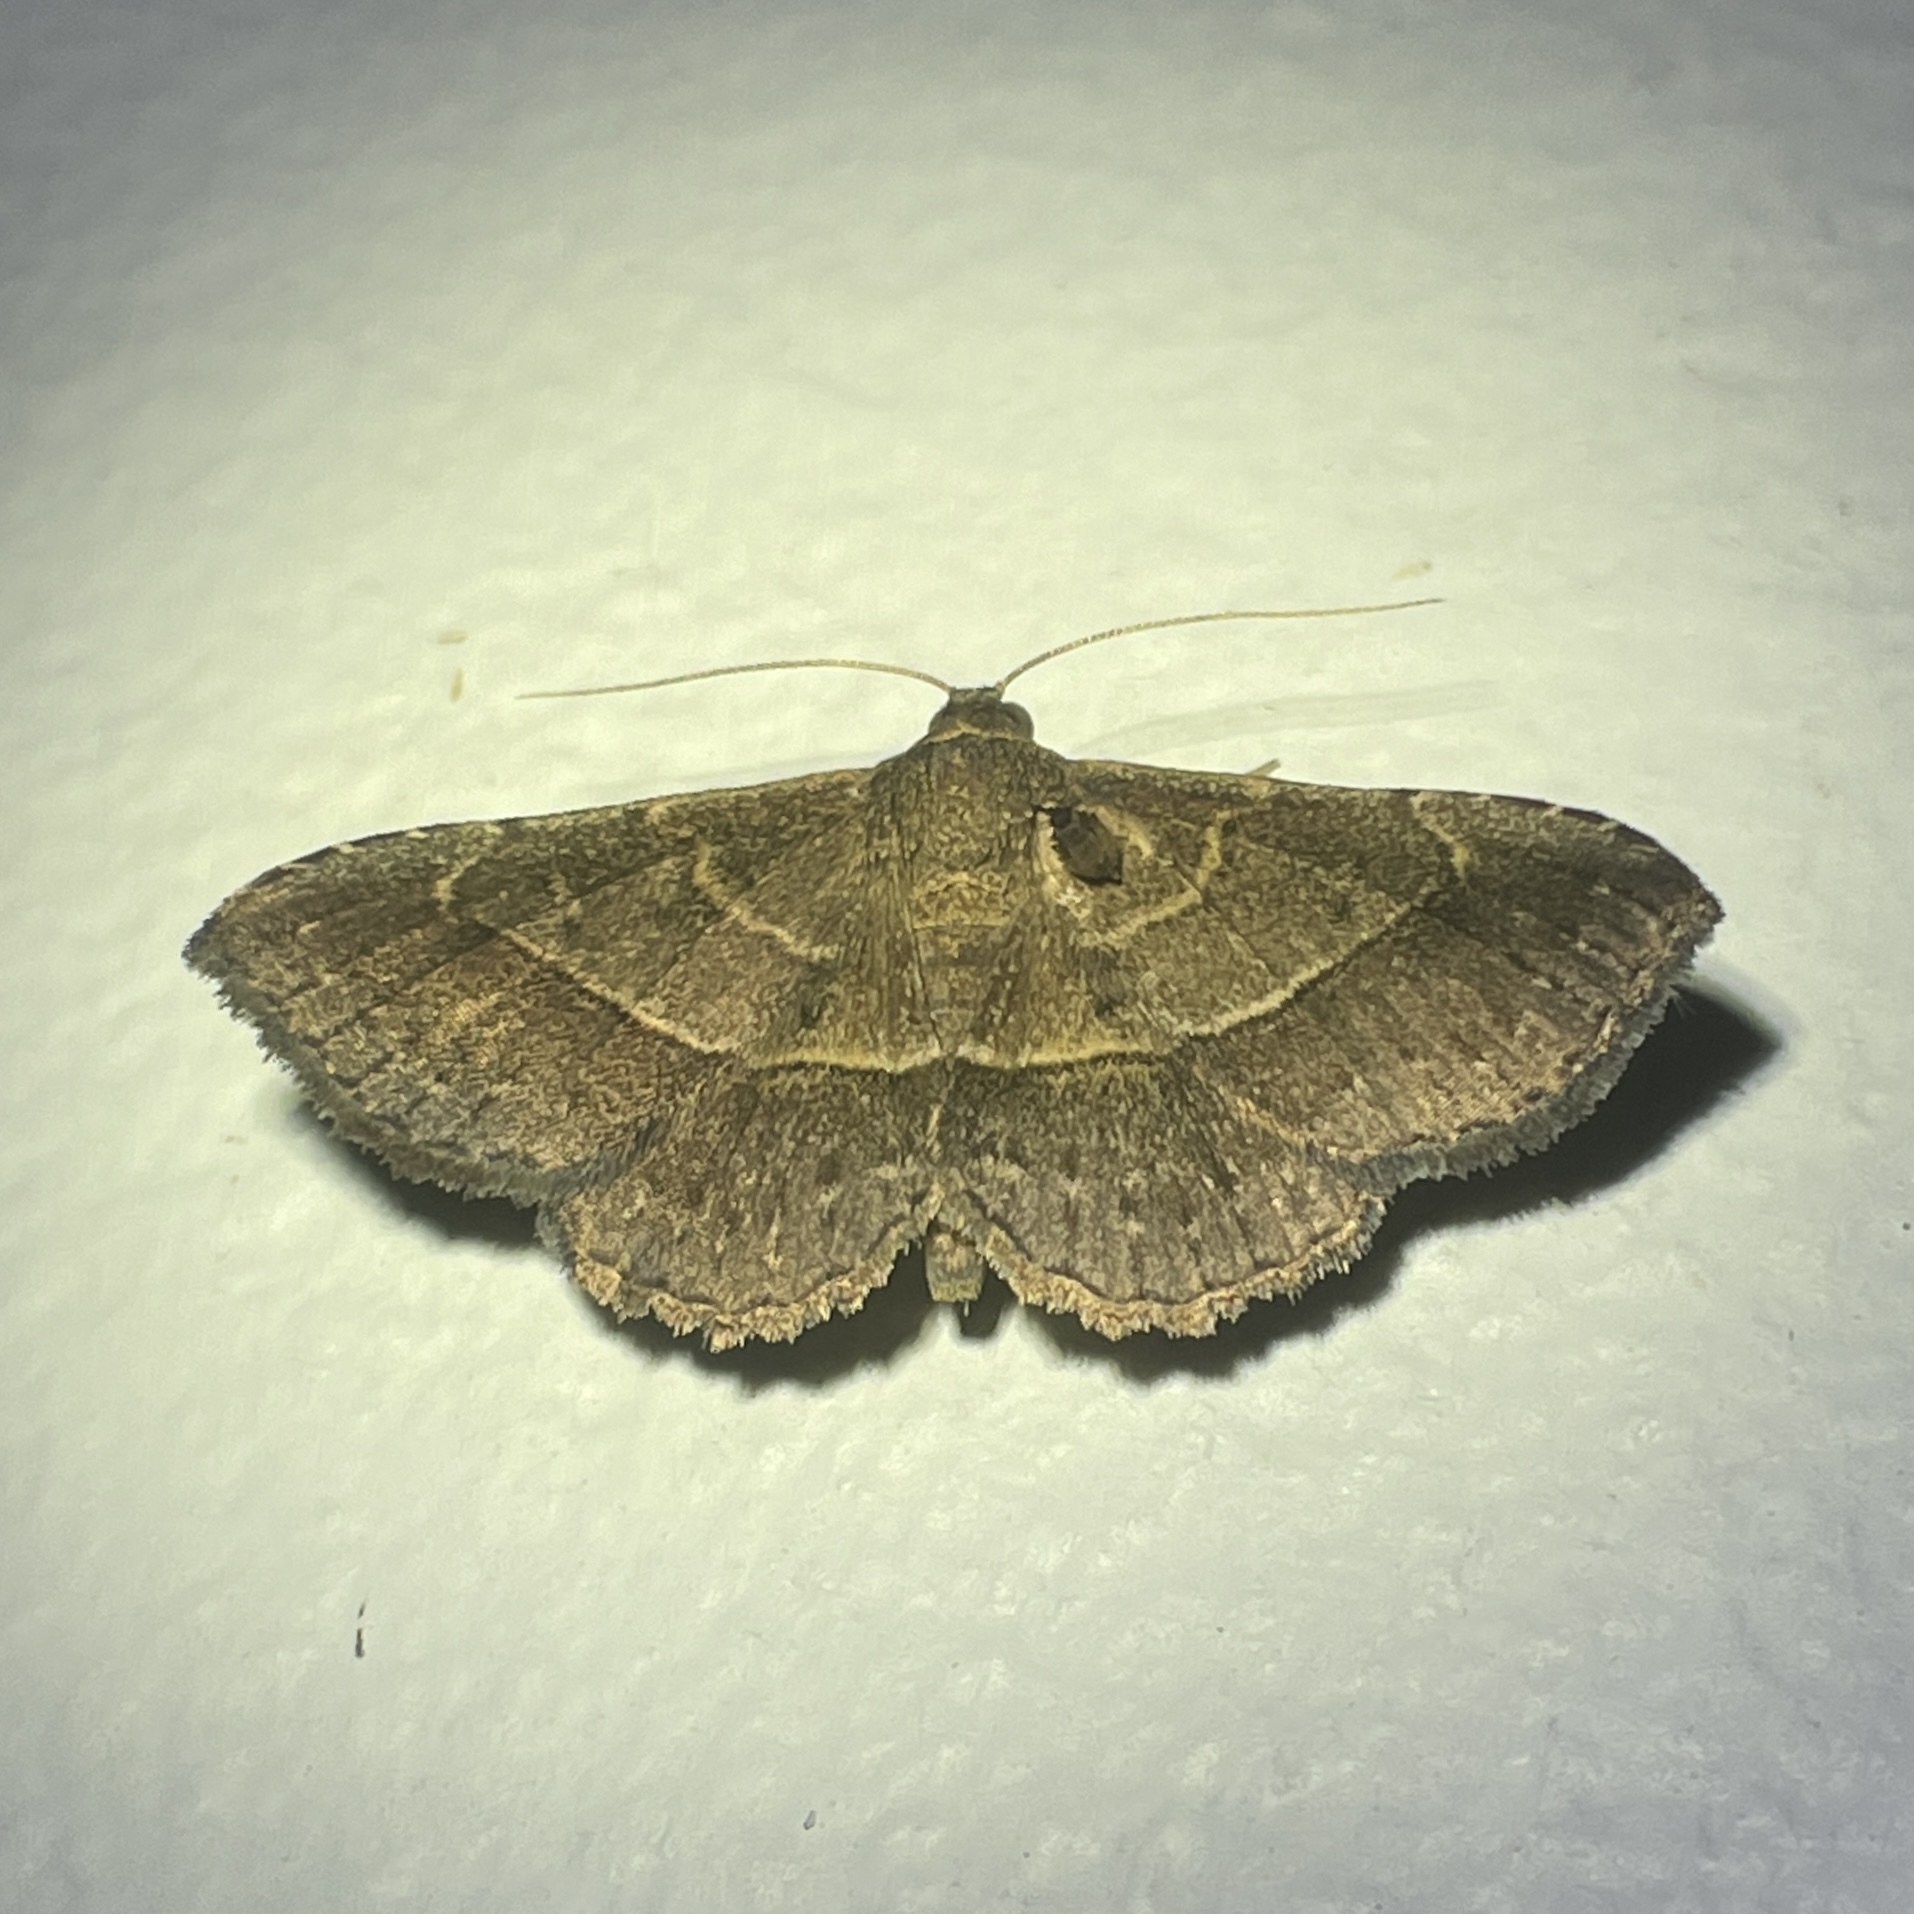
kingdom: Animalia
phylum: Arthropoda
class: Insecta
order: Lepidoptera
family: Erebidae
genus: Coenobela
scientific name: Coenobela paucula
